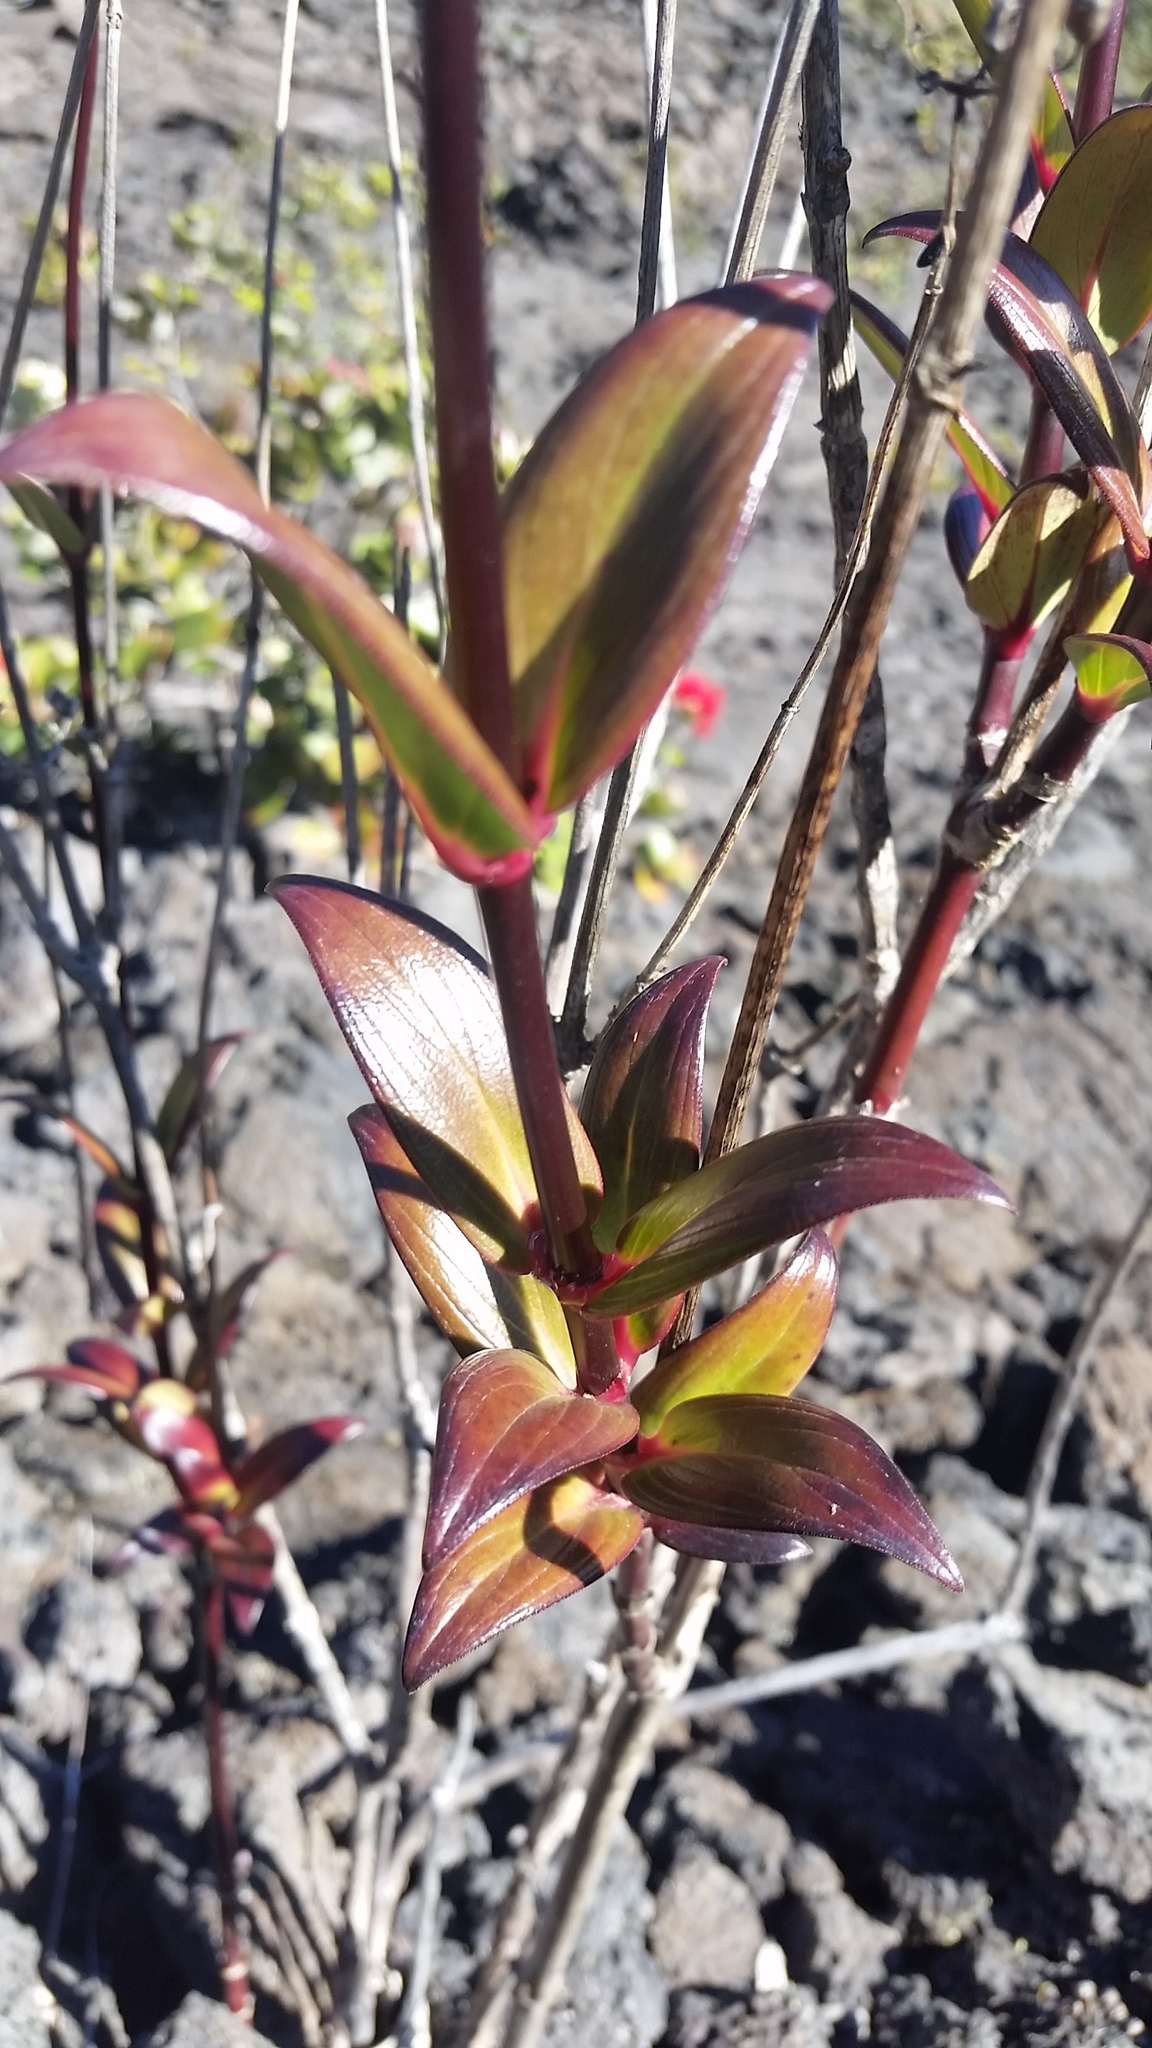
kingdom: Plantae
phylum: Tracheophyta
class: Magnoliopsida
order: Gentianales
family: Rubiaceae
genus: Kadua
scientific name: Kadua centranthoides
